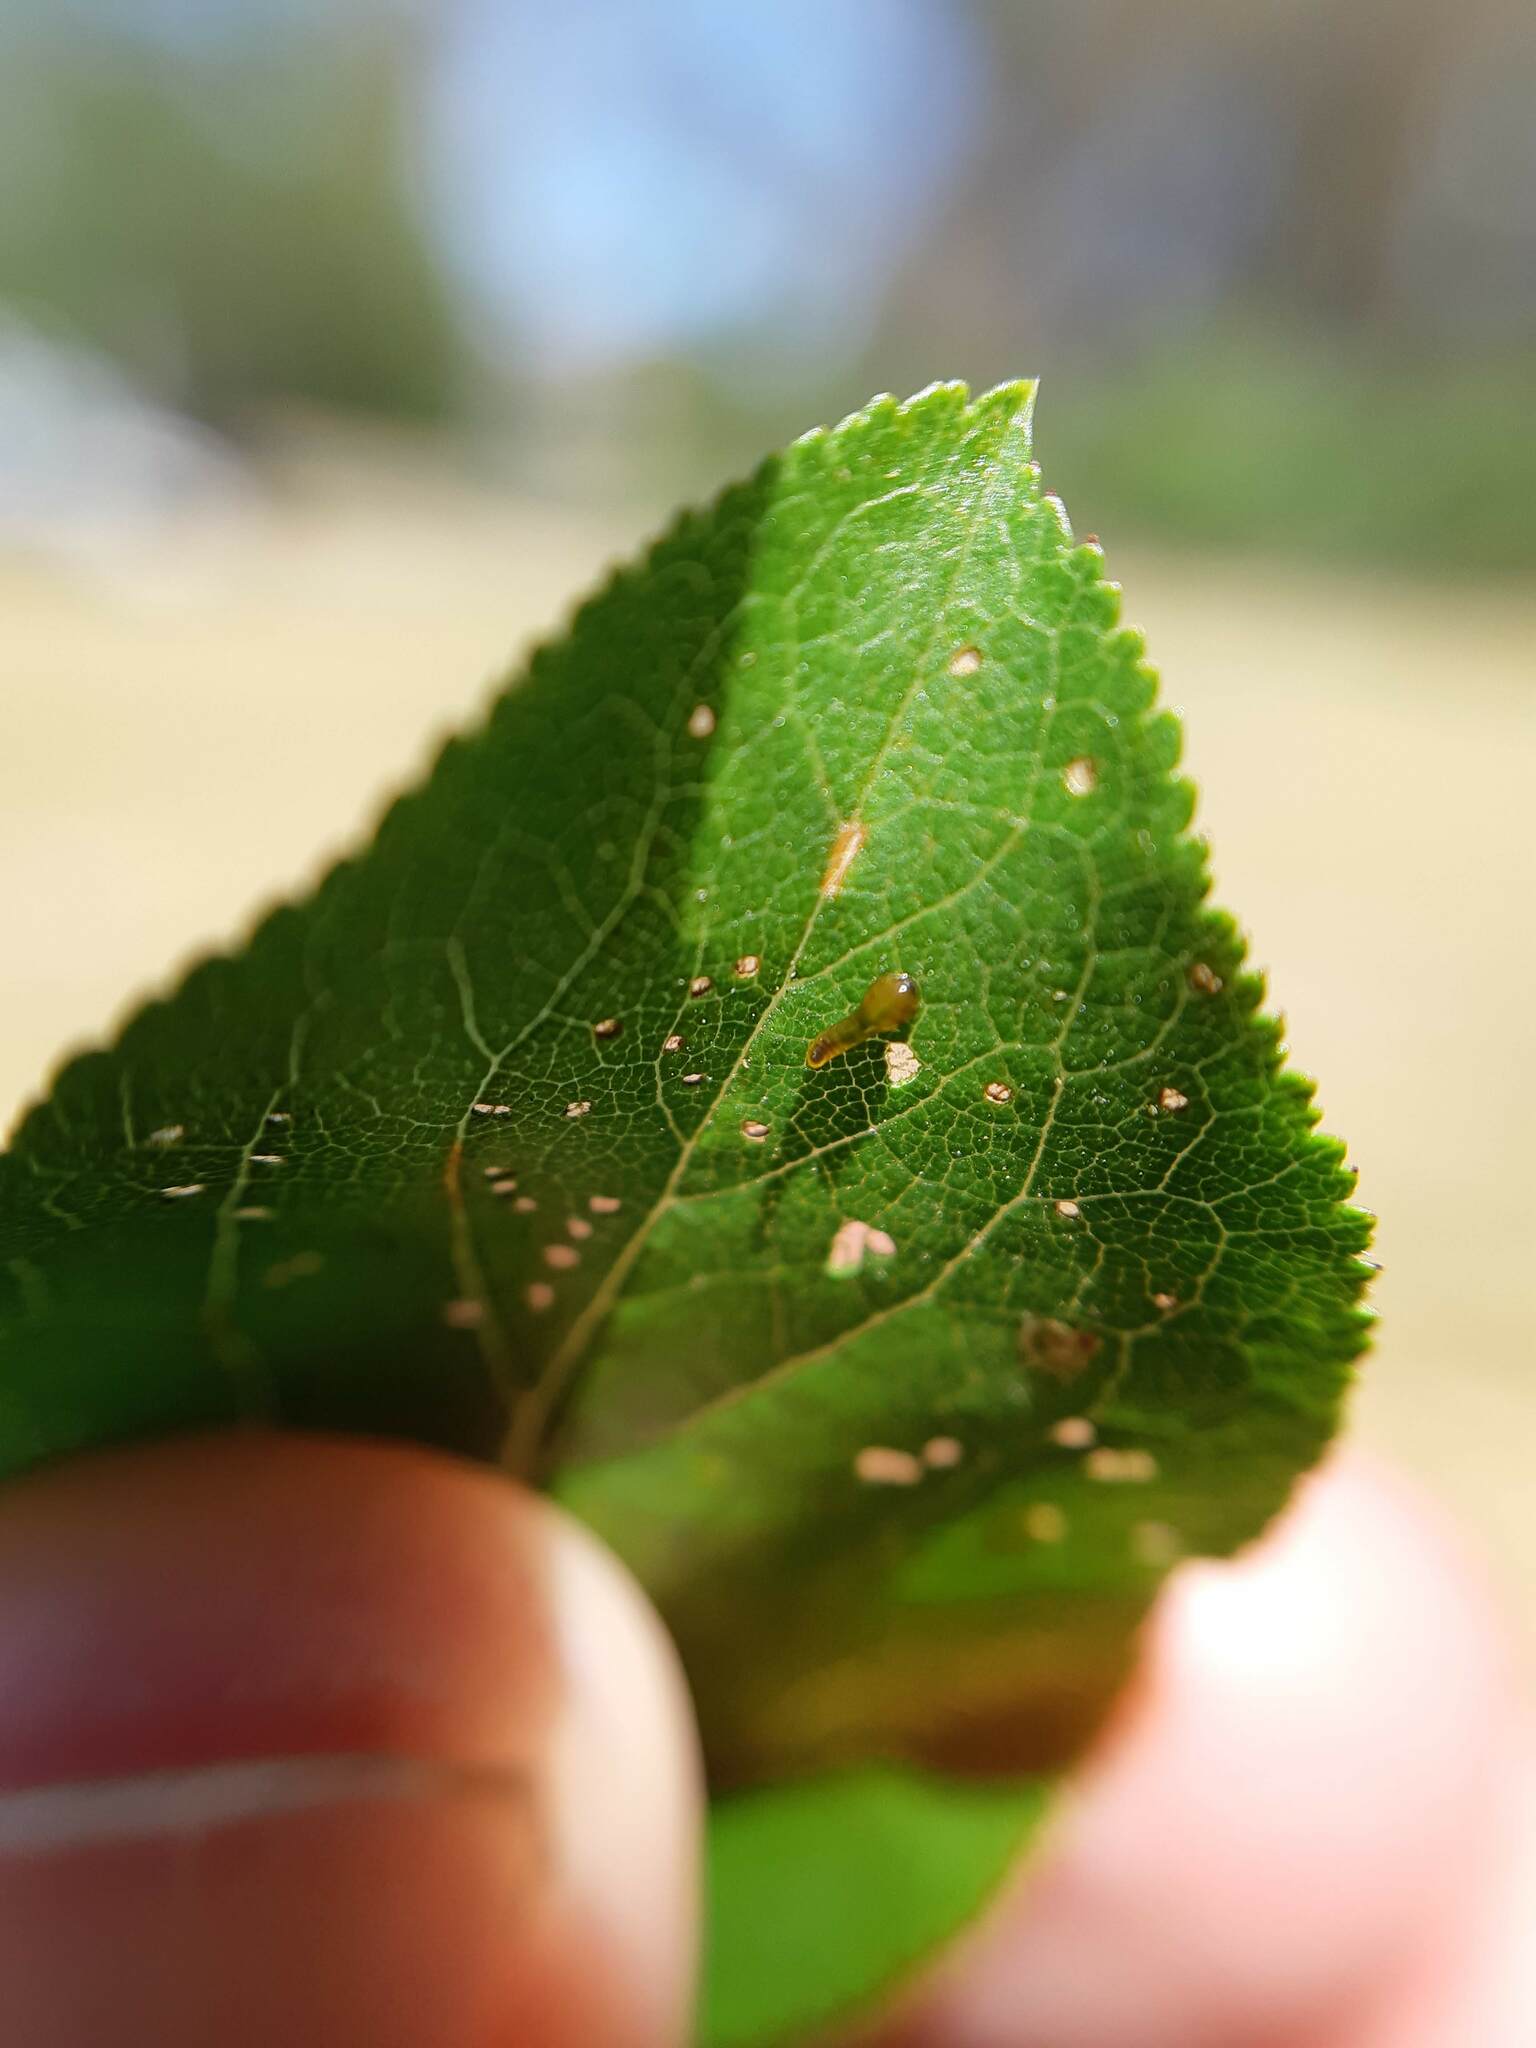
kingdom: Animalia
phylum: Arthropoda
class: Insecta
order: Hymenoptera
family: Tenthredinidae
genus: Caliroa
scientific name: Caliroa cerasi
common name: Pear sawfly
